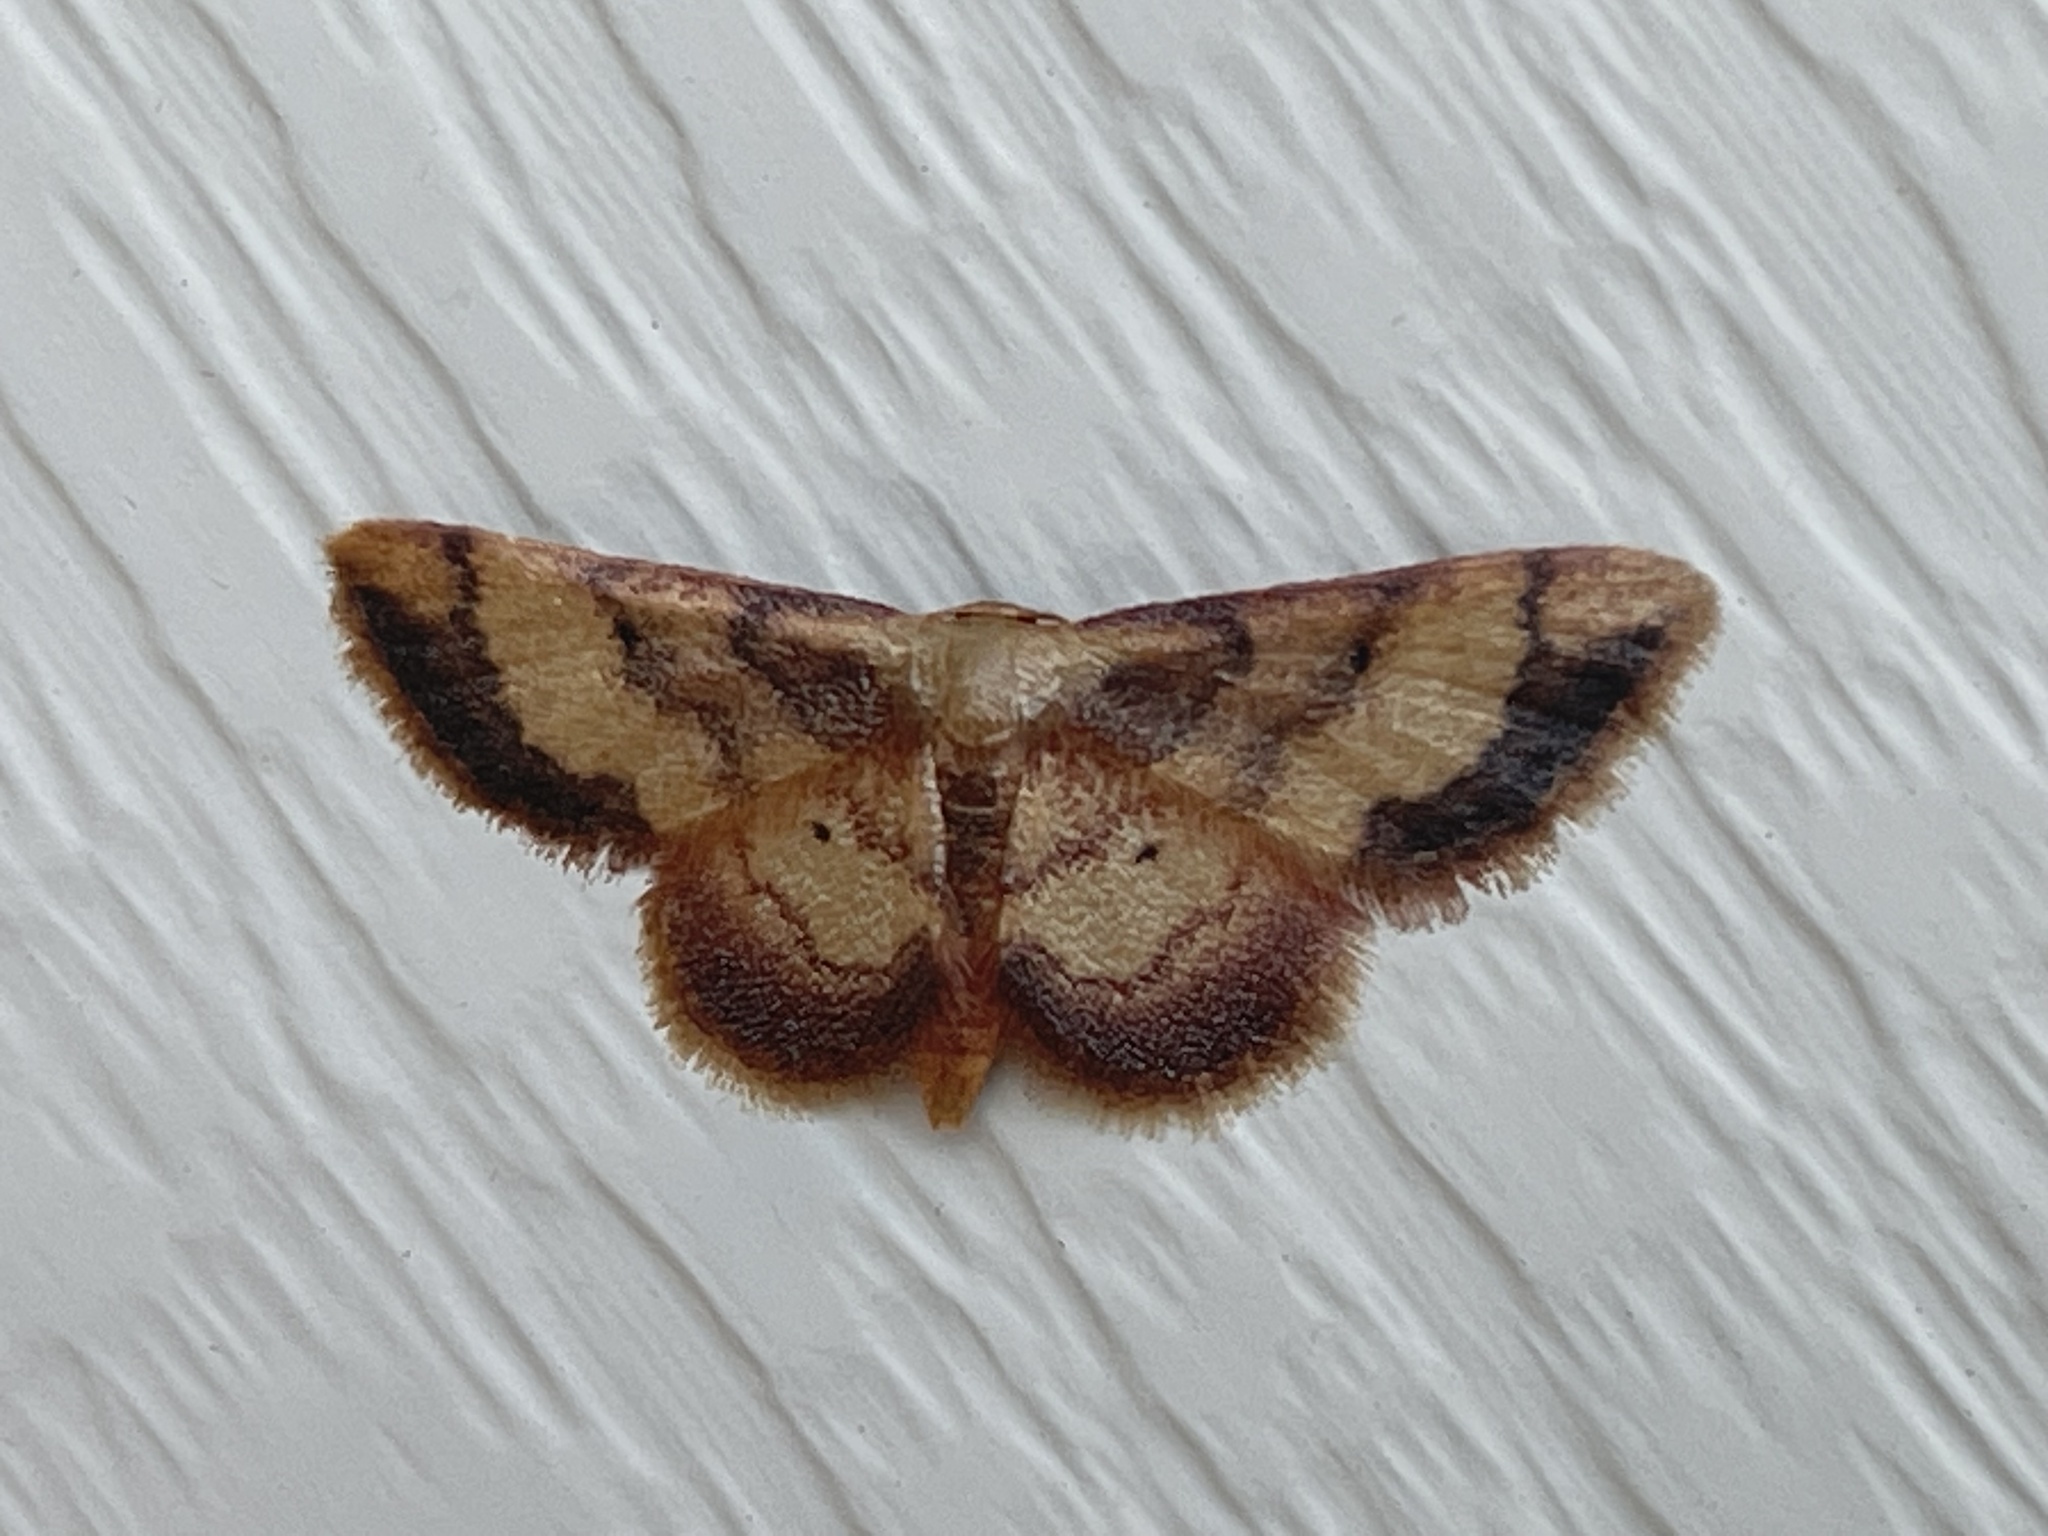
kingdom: Animalia
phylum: Arthropoda
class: Insecta
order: Lepidoptera
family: Geometridae
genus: Idaea
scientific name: Idaea demissaria
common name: Red-bordered wave
